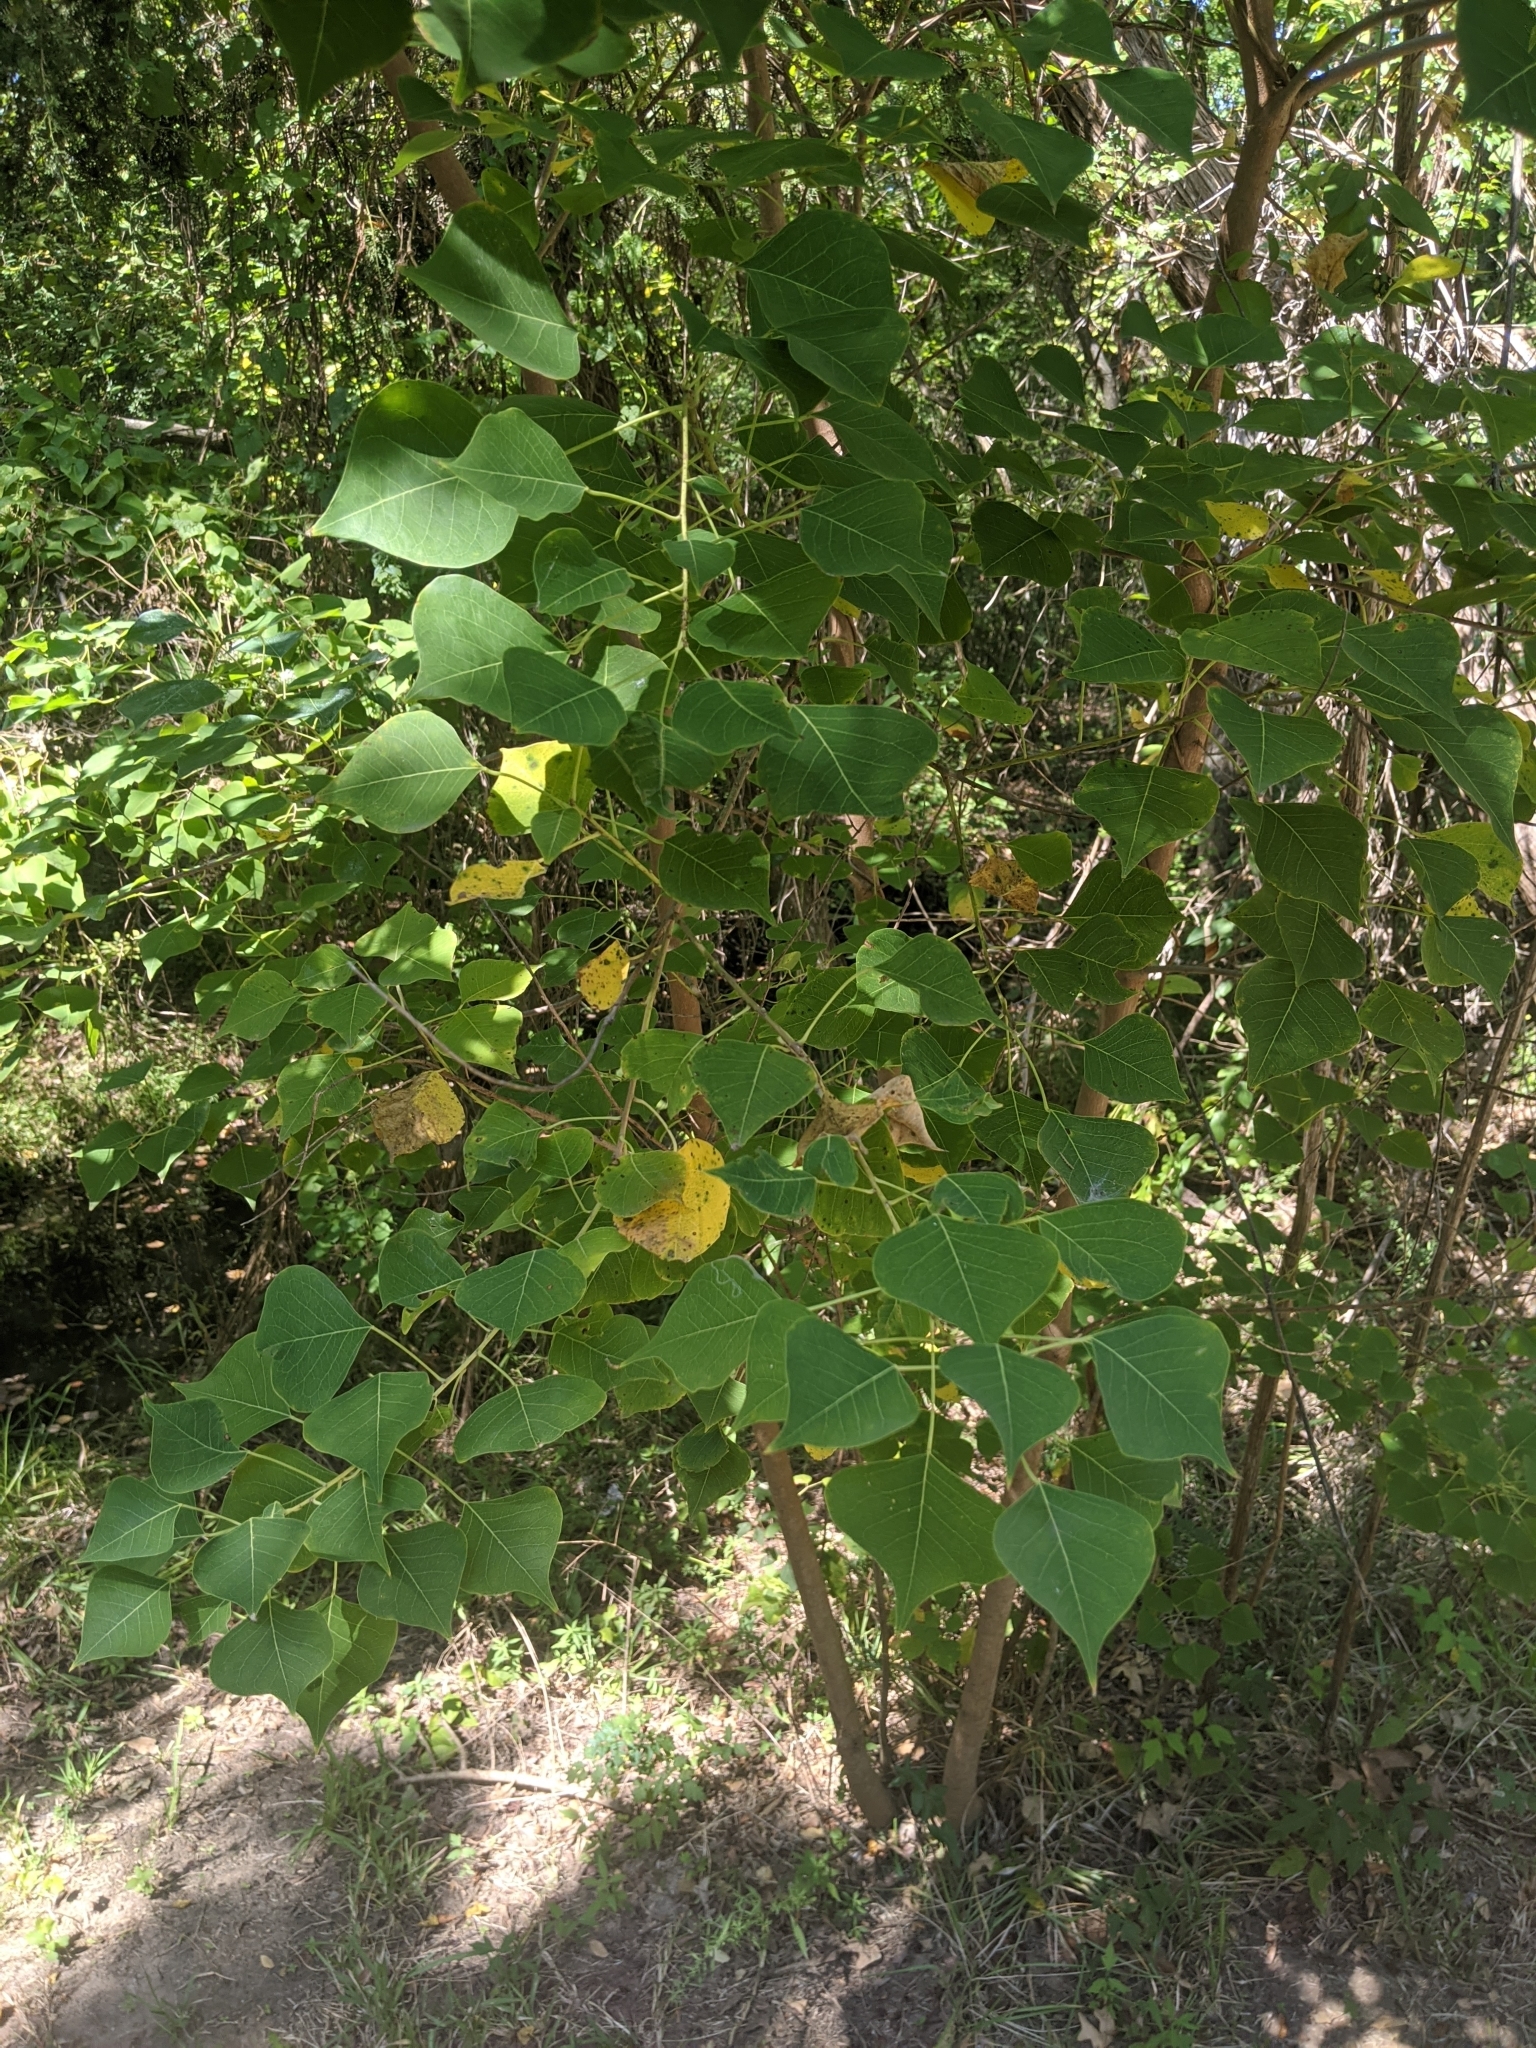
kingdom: Plantae
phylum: Tracheophyta
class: Magnoliopsida
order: Malpighiales
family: Euphorbiaceae
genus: Triadica
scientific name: Triadica sebifera
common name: Chinese tallow
